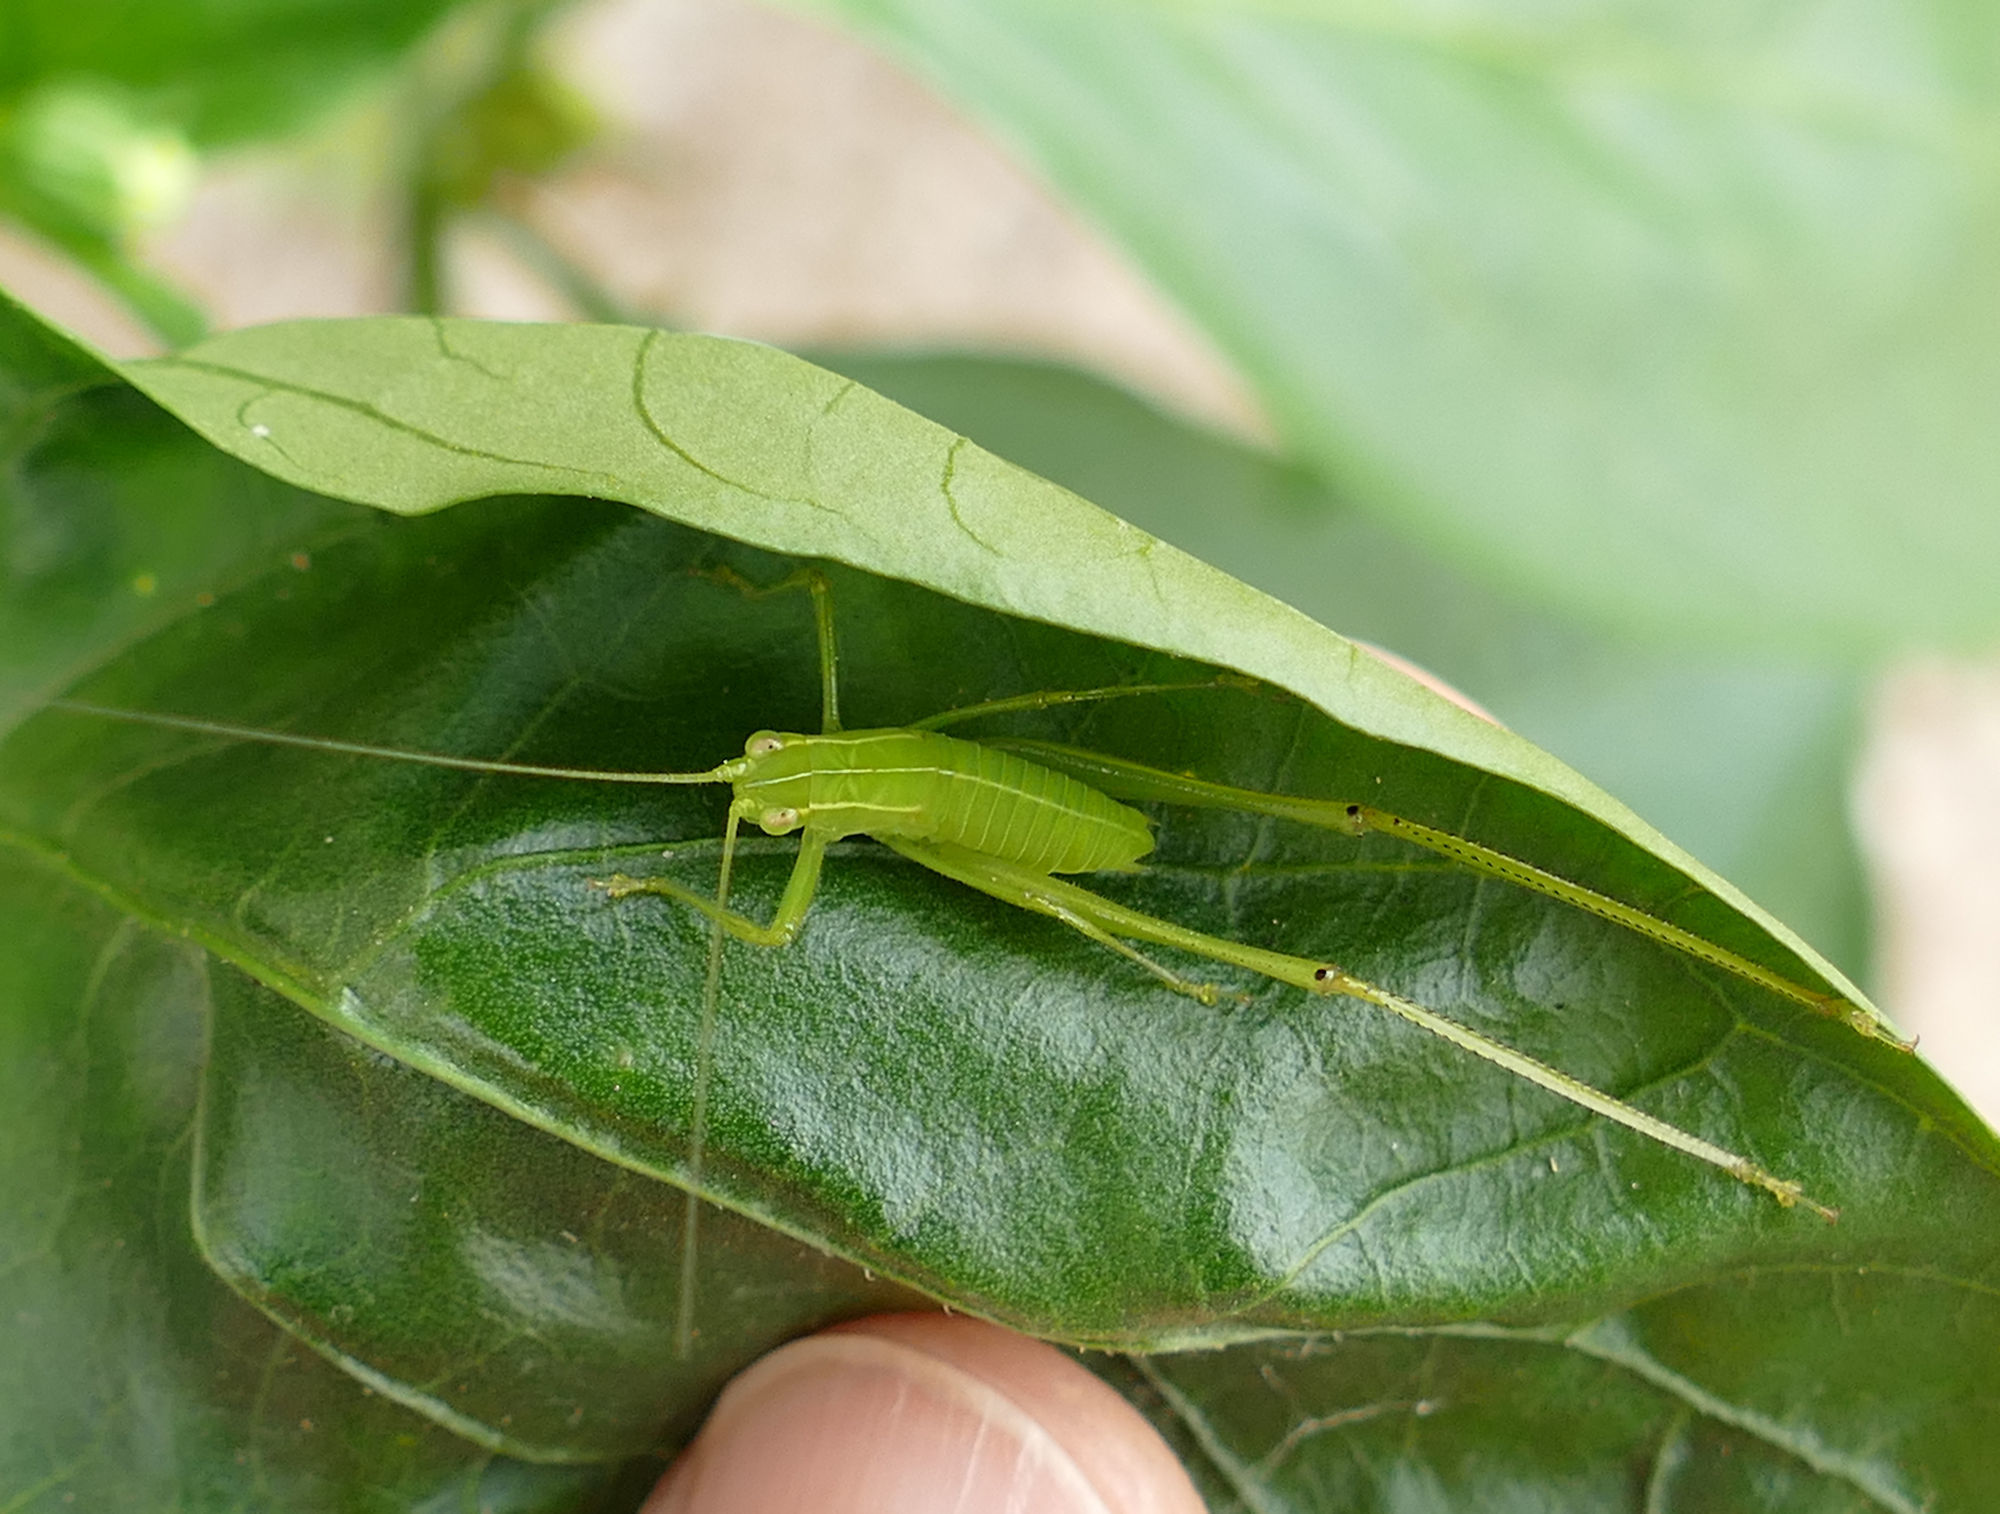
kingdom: Animalia
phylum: Arthropoda
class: Insecta
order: Orthoptera
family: Tettigoniidae
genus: Turpiliodes
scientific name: Turpiliodes mexicanum
